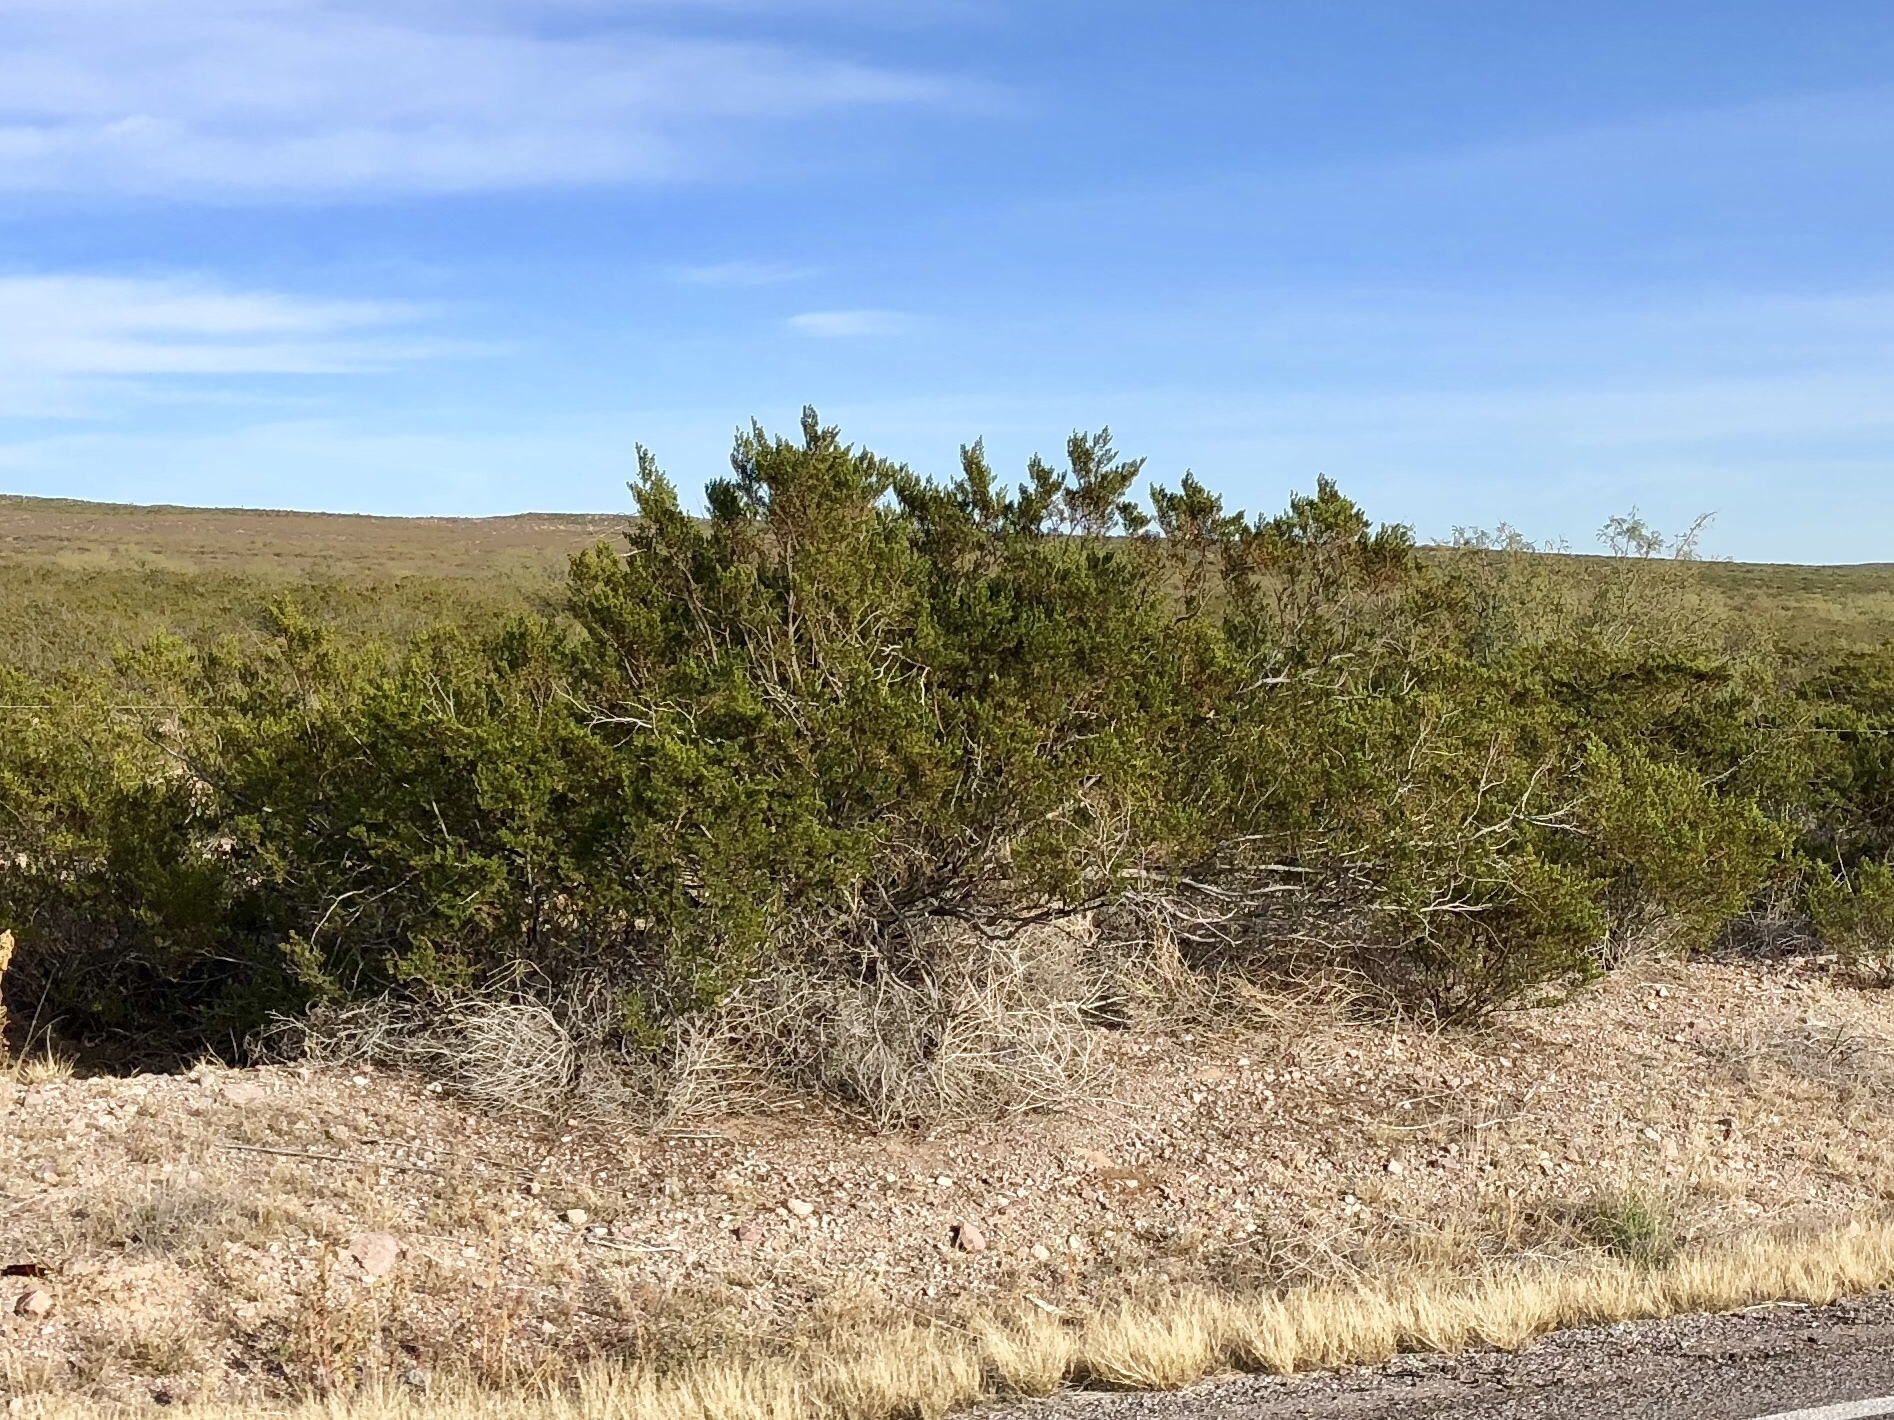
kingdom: Plantae
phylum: Tracheophyta
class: Magnoliopsida
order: Zygophyllales
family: Zygophyllaceae
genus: Larrea
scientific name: Larrea tridentata
